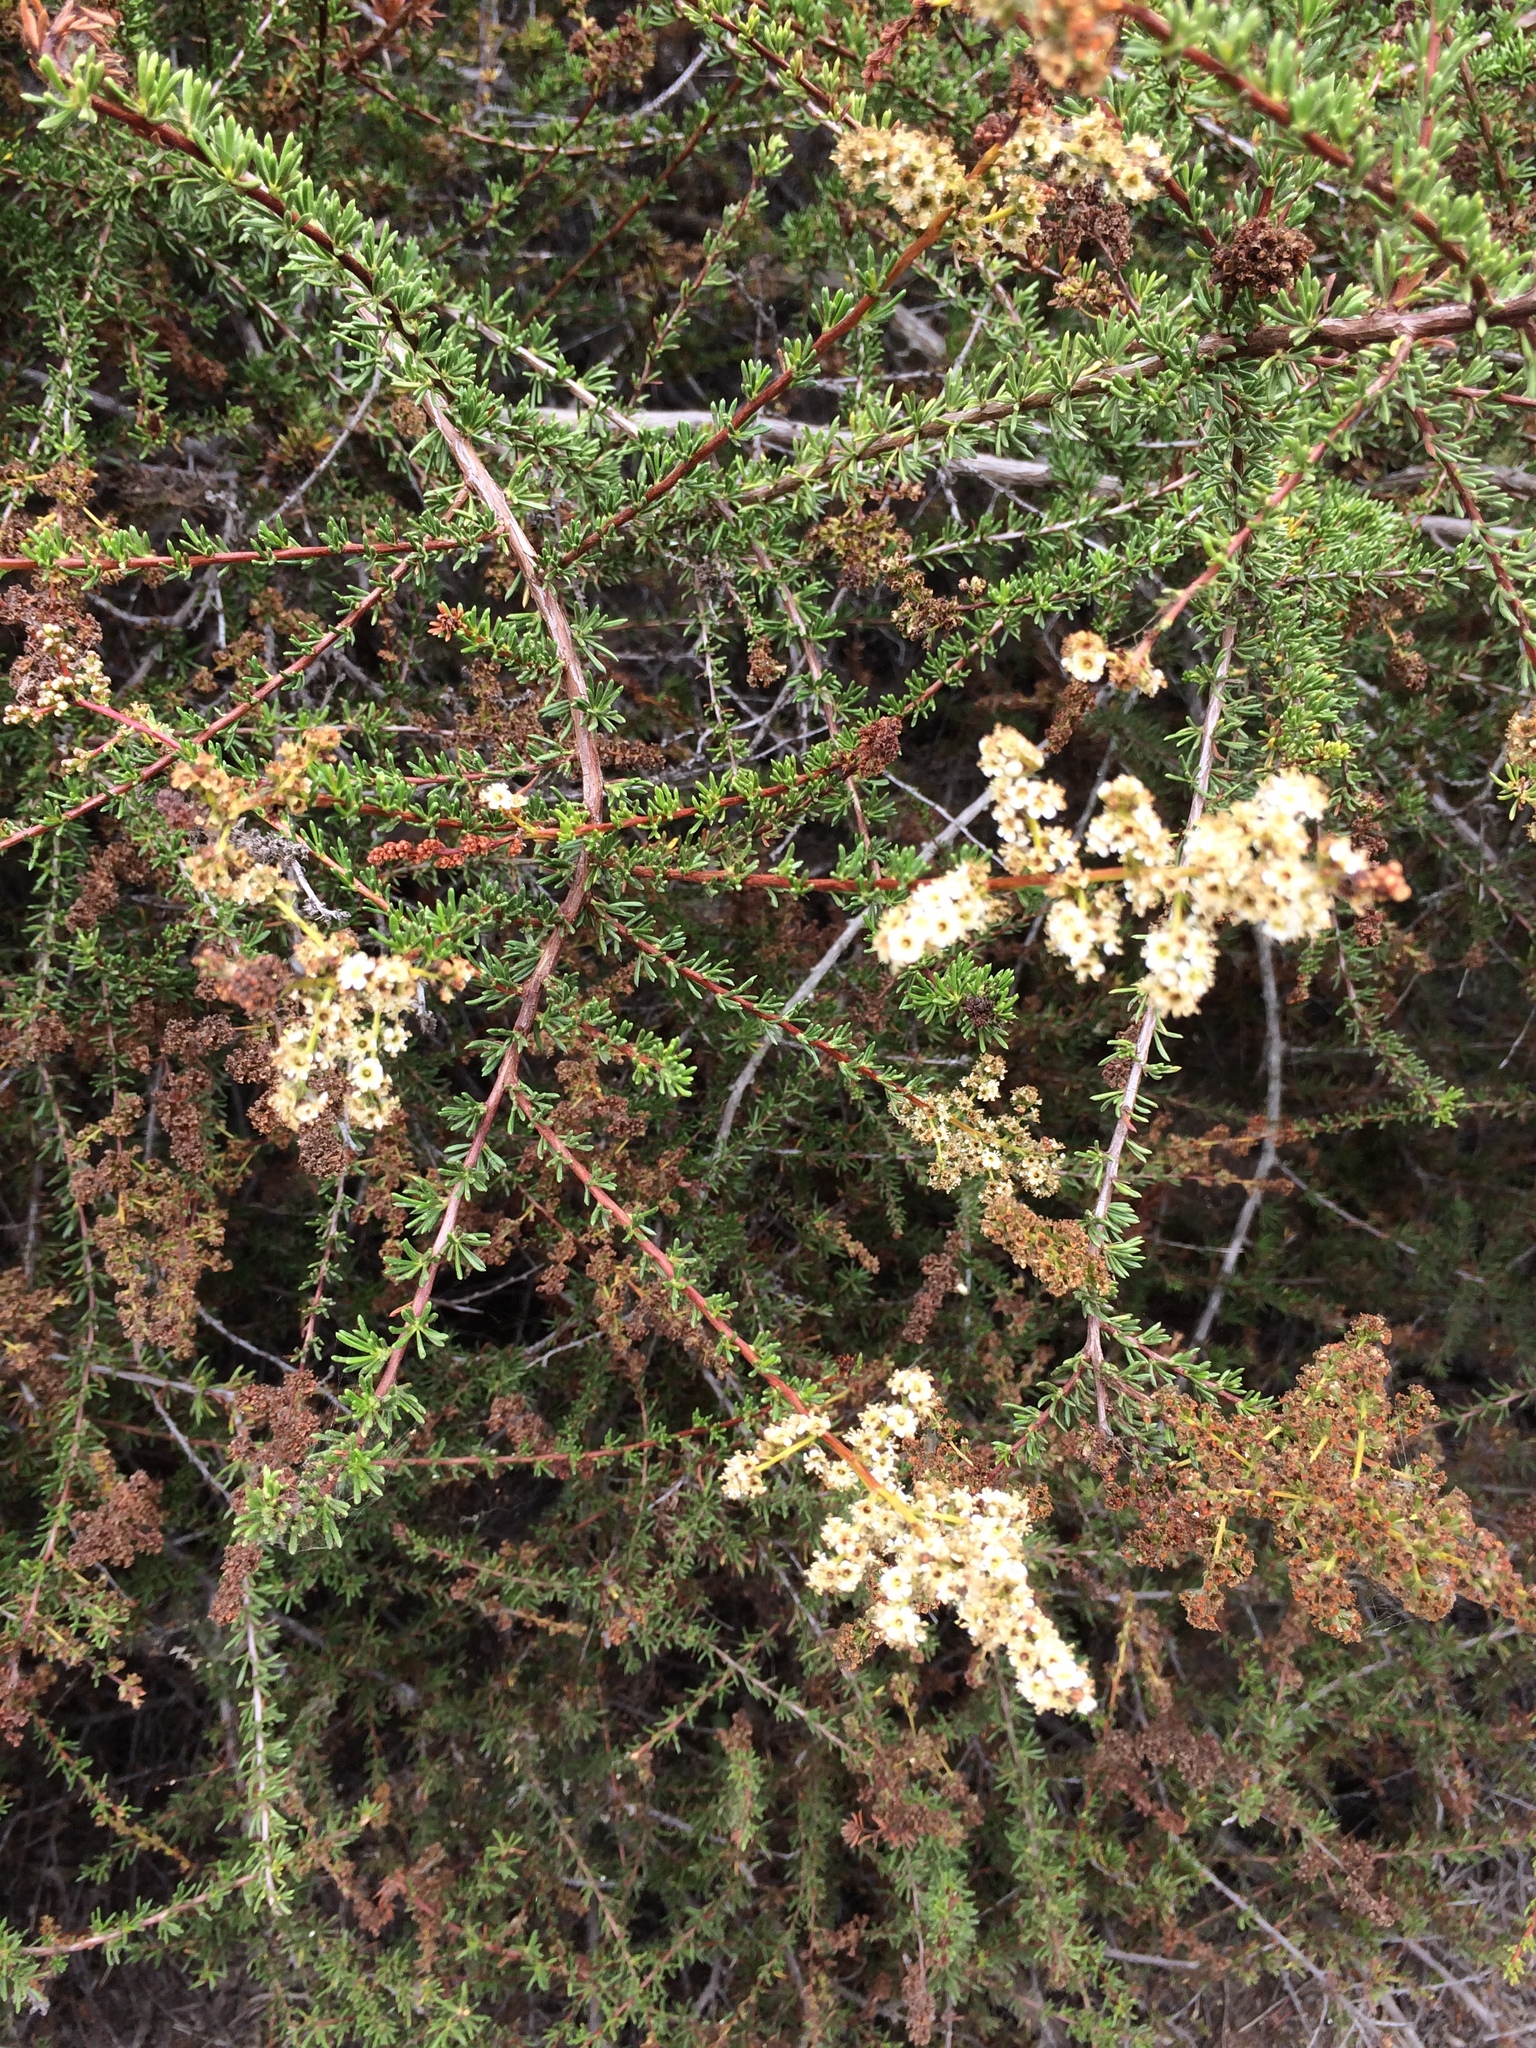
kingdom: Plantae
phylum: Tracheophyta
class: Magnoliopsida
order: Rosales
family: Rosaceae
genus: Adenostoma
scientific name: Adenostoma fasciculatum
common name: Chamise
